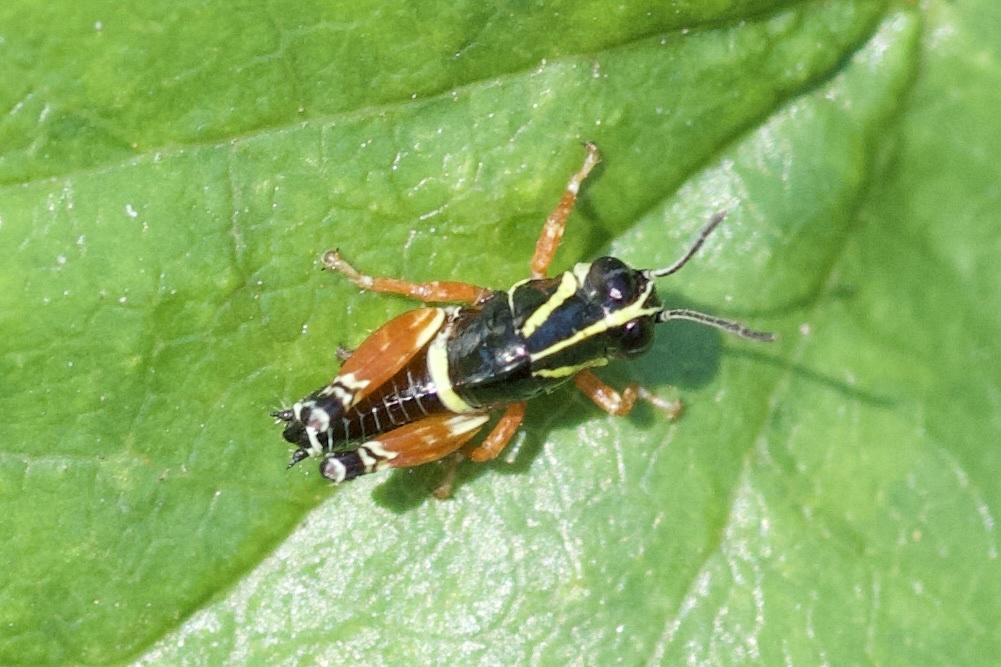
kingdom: Animalia
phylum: Arthropoda
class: Insecta
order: Orthoptera
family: Acrididae
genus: Aidemona
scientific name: Aidemona azteca
